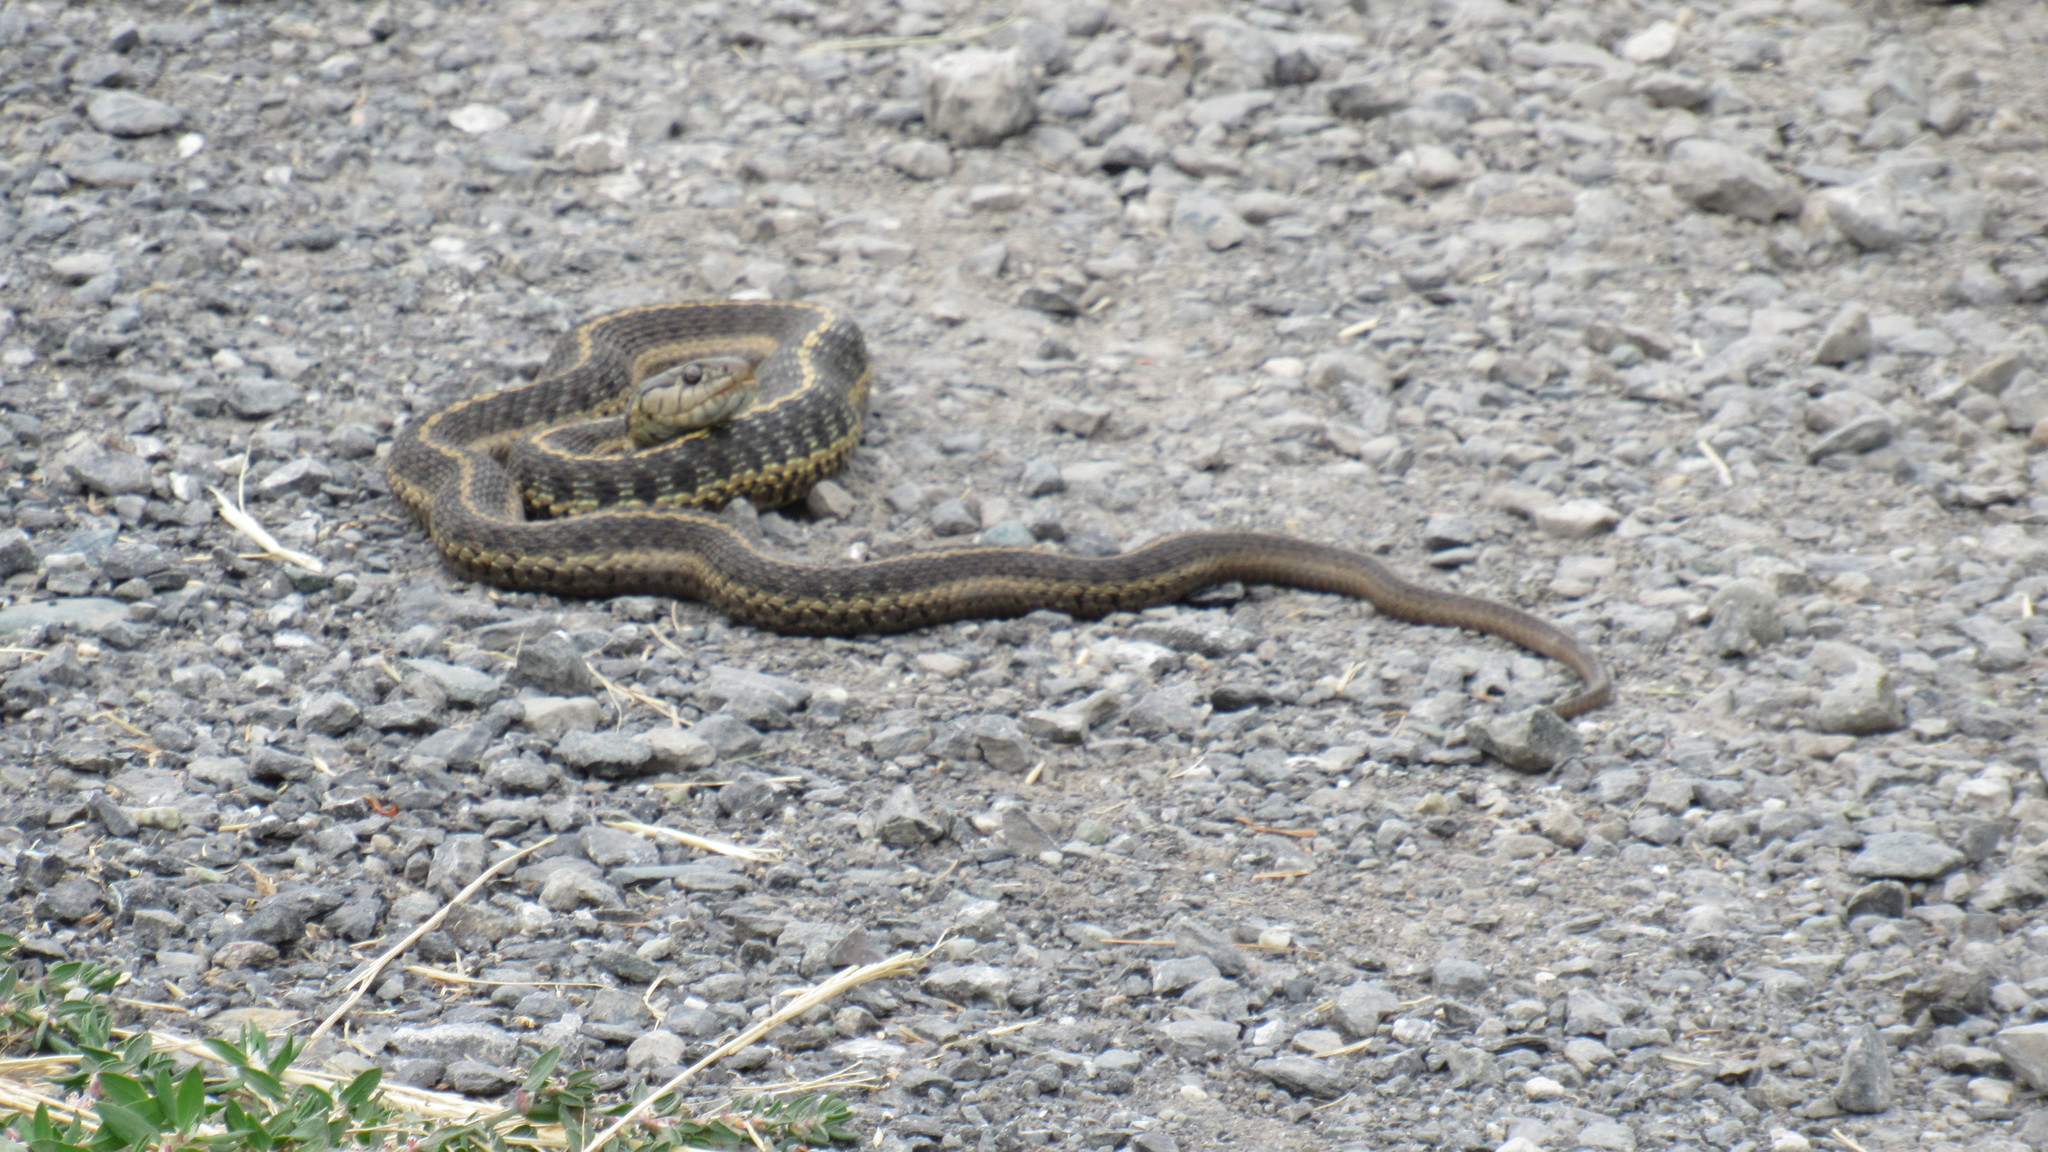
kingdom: Animalia
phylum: Chordata
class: Squamata
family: Colubridae
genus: Thamnophis
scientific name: Thamnophis elegans
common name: Western terrestrial garter snake
